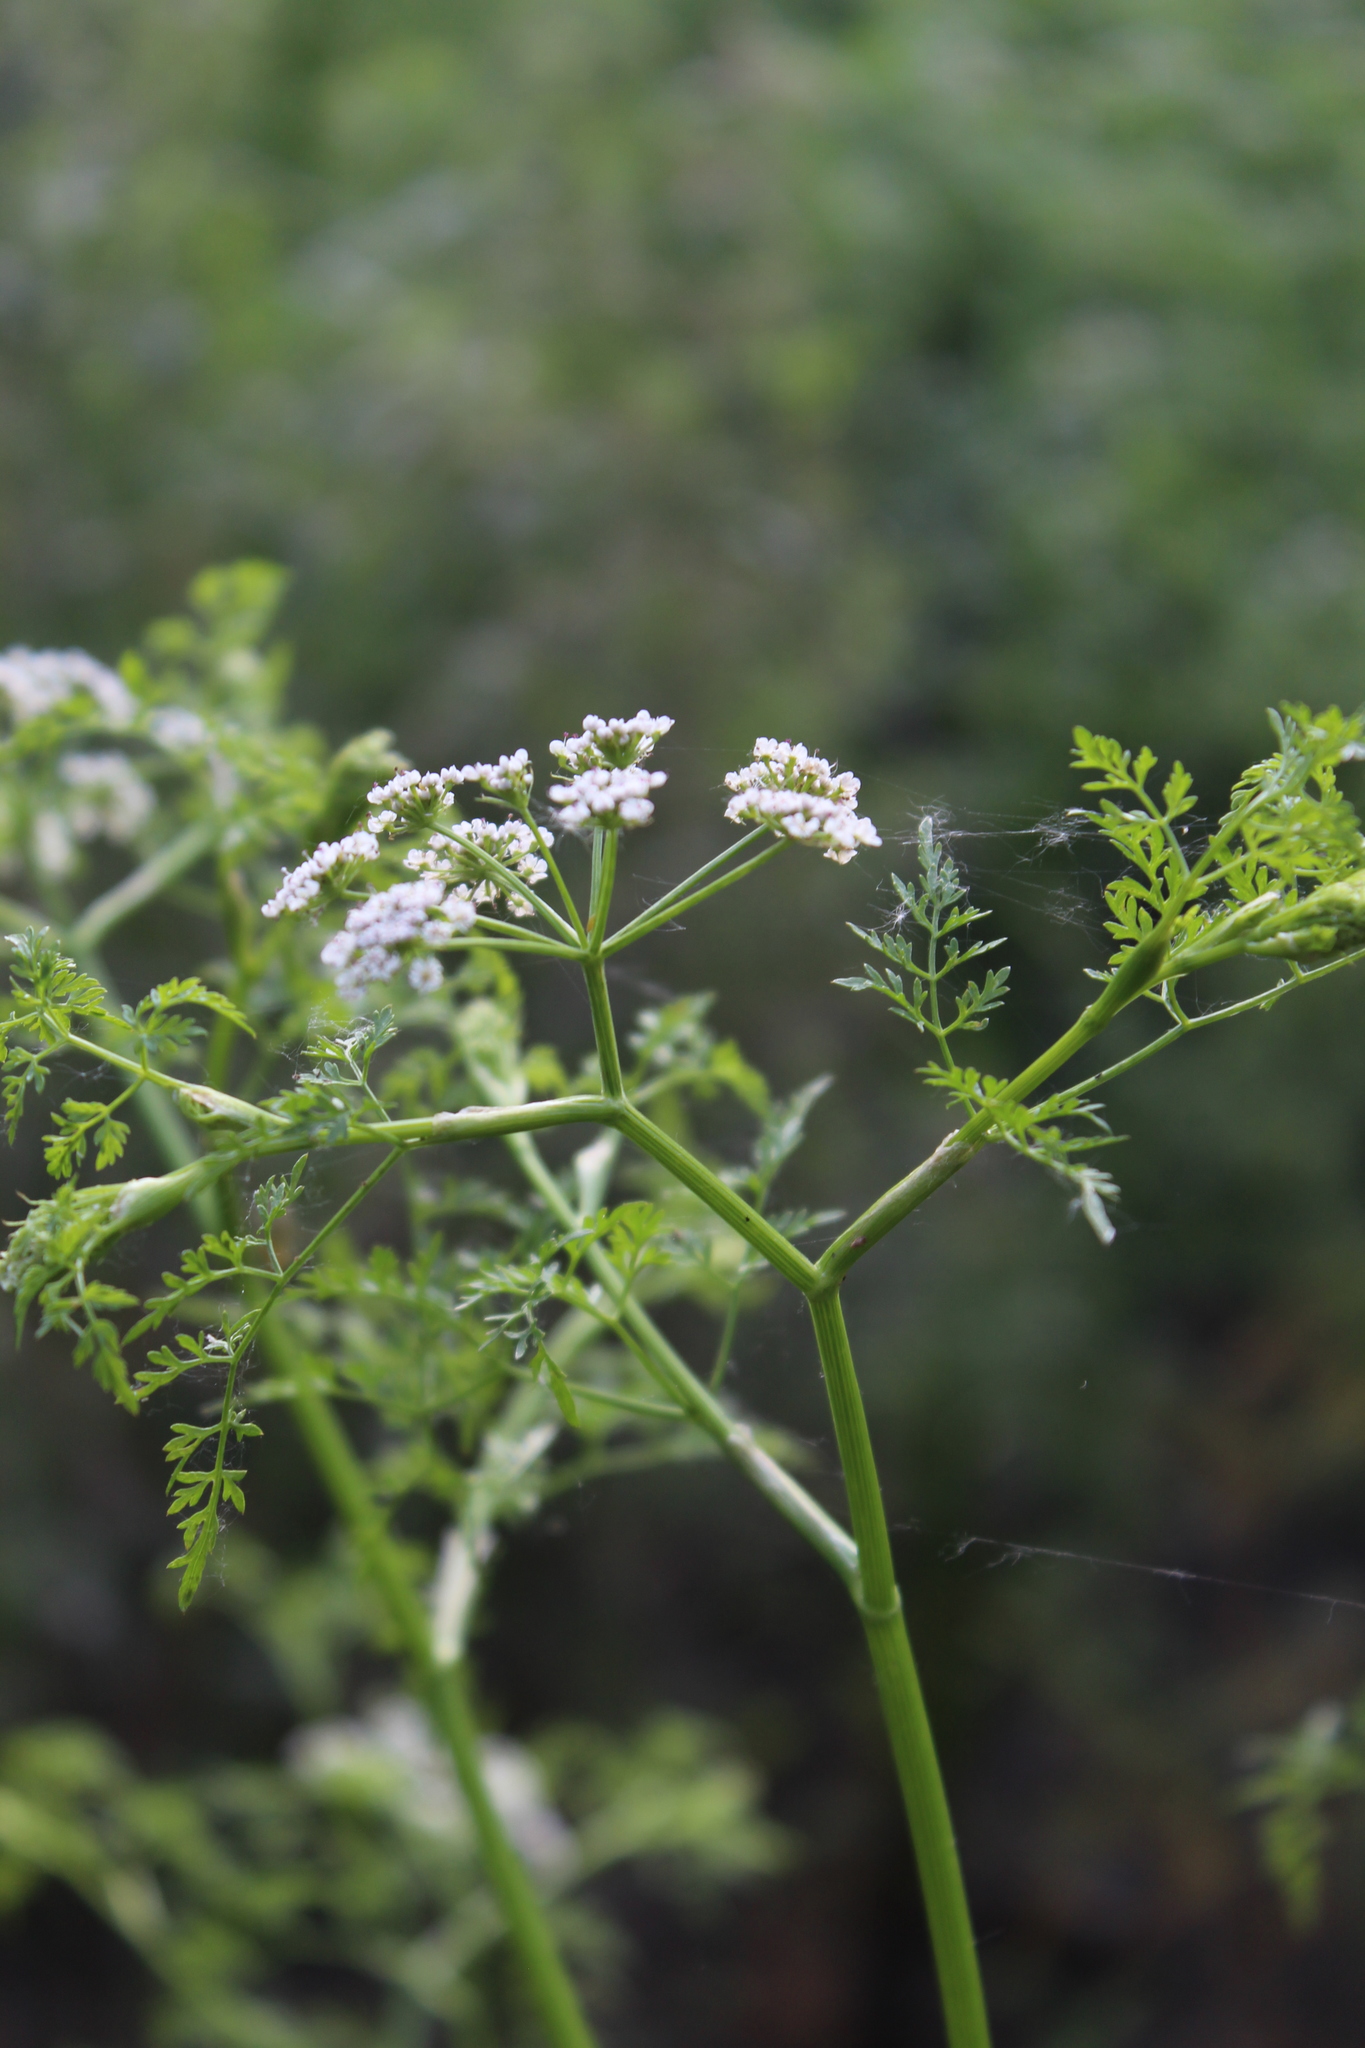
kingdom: Plantae
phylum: Tracheophyta
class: Magnoliopsida
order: Apiales
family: Apiaceae
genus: Oenanthe
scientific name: Oenanthe aquatica
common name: Fine-leaved water-dropwort
